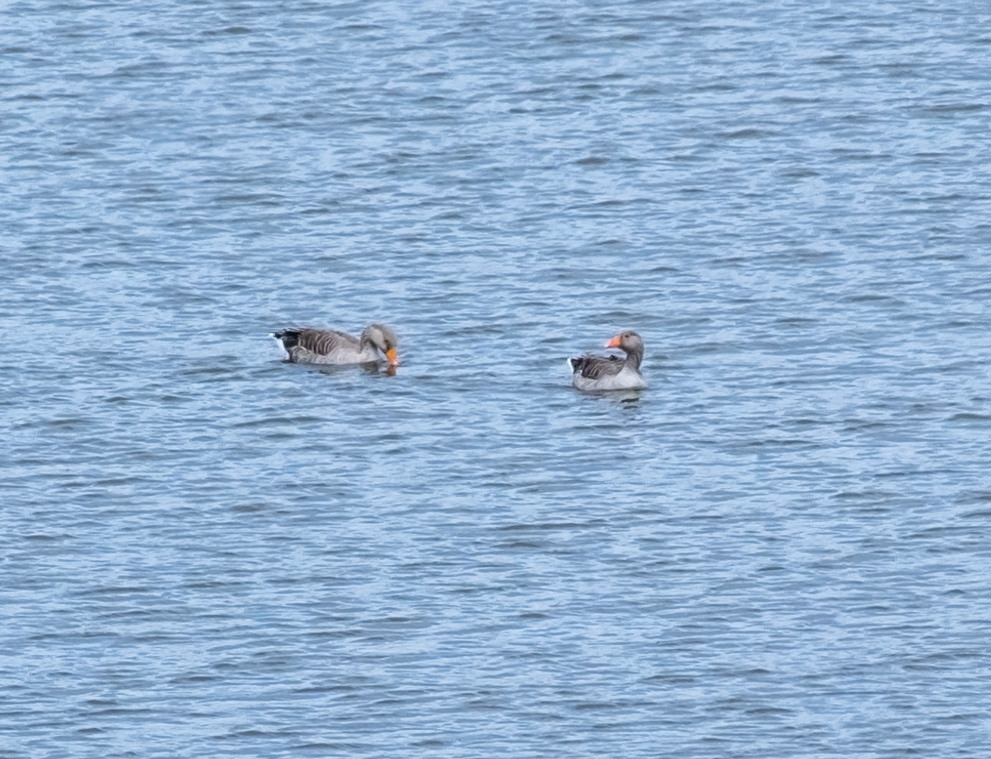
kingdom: Animalia
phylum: Chordata
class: Aves
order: Anseriformes
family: Anatidae
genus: Anser
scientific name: Anser anser
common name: Greylag goose
